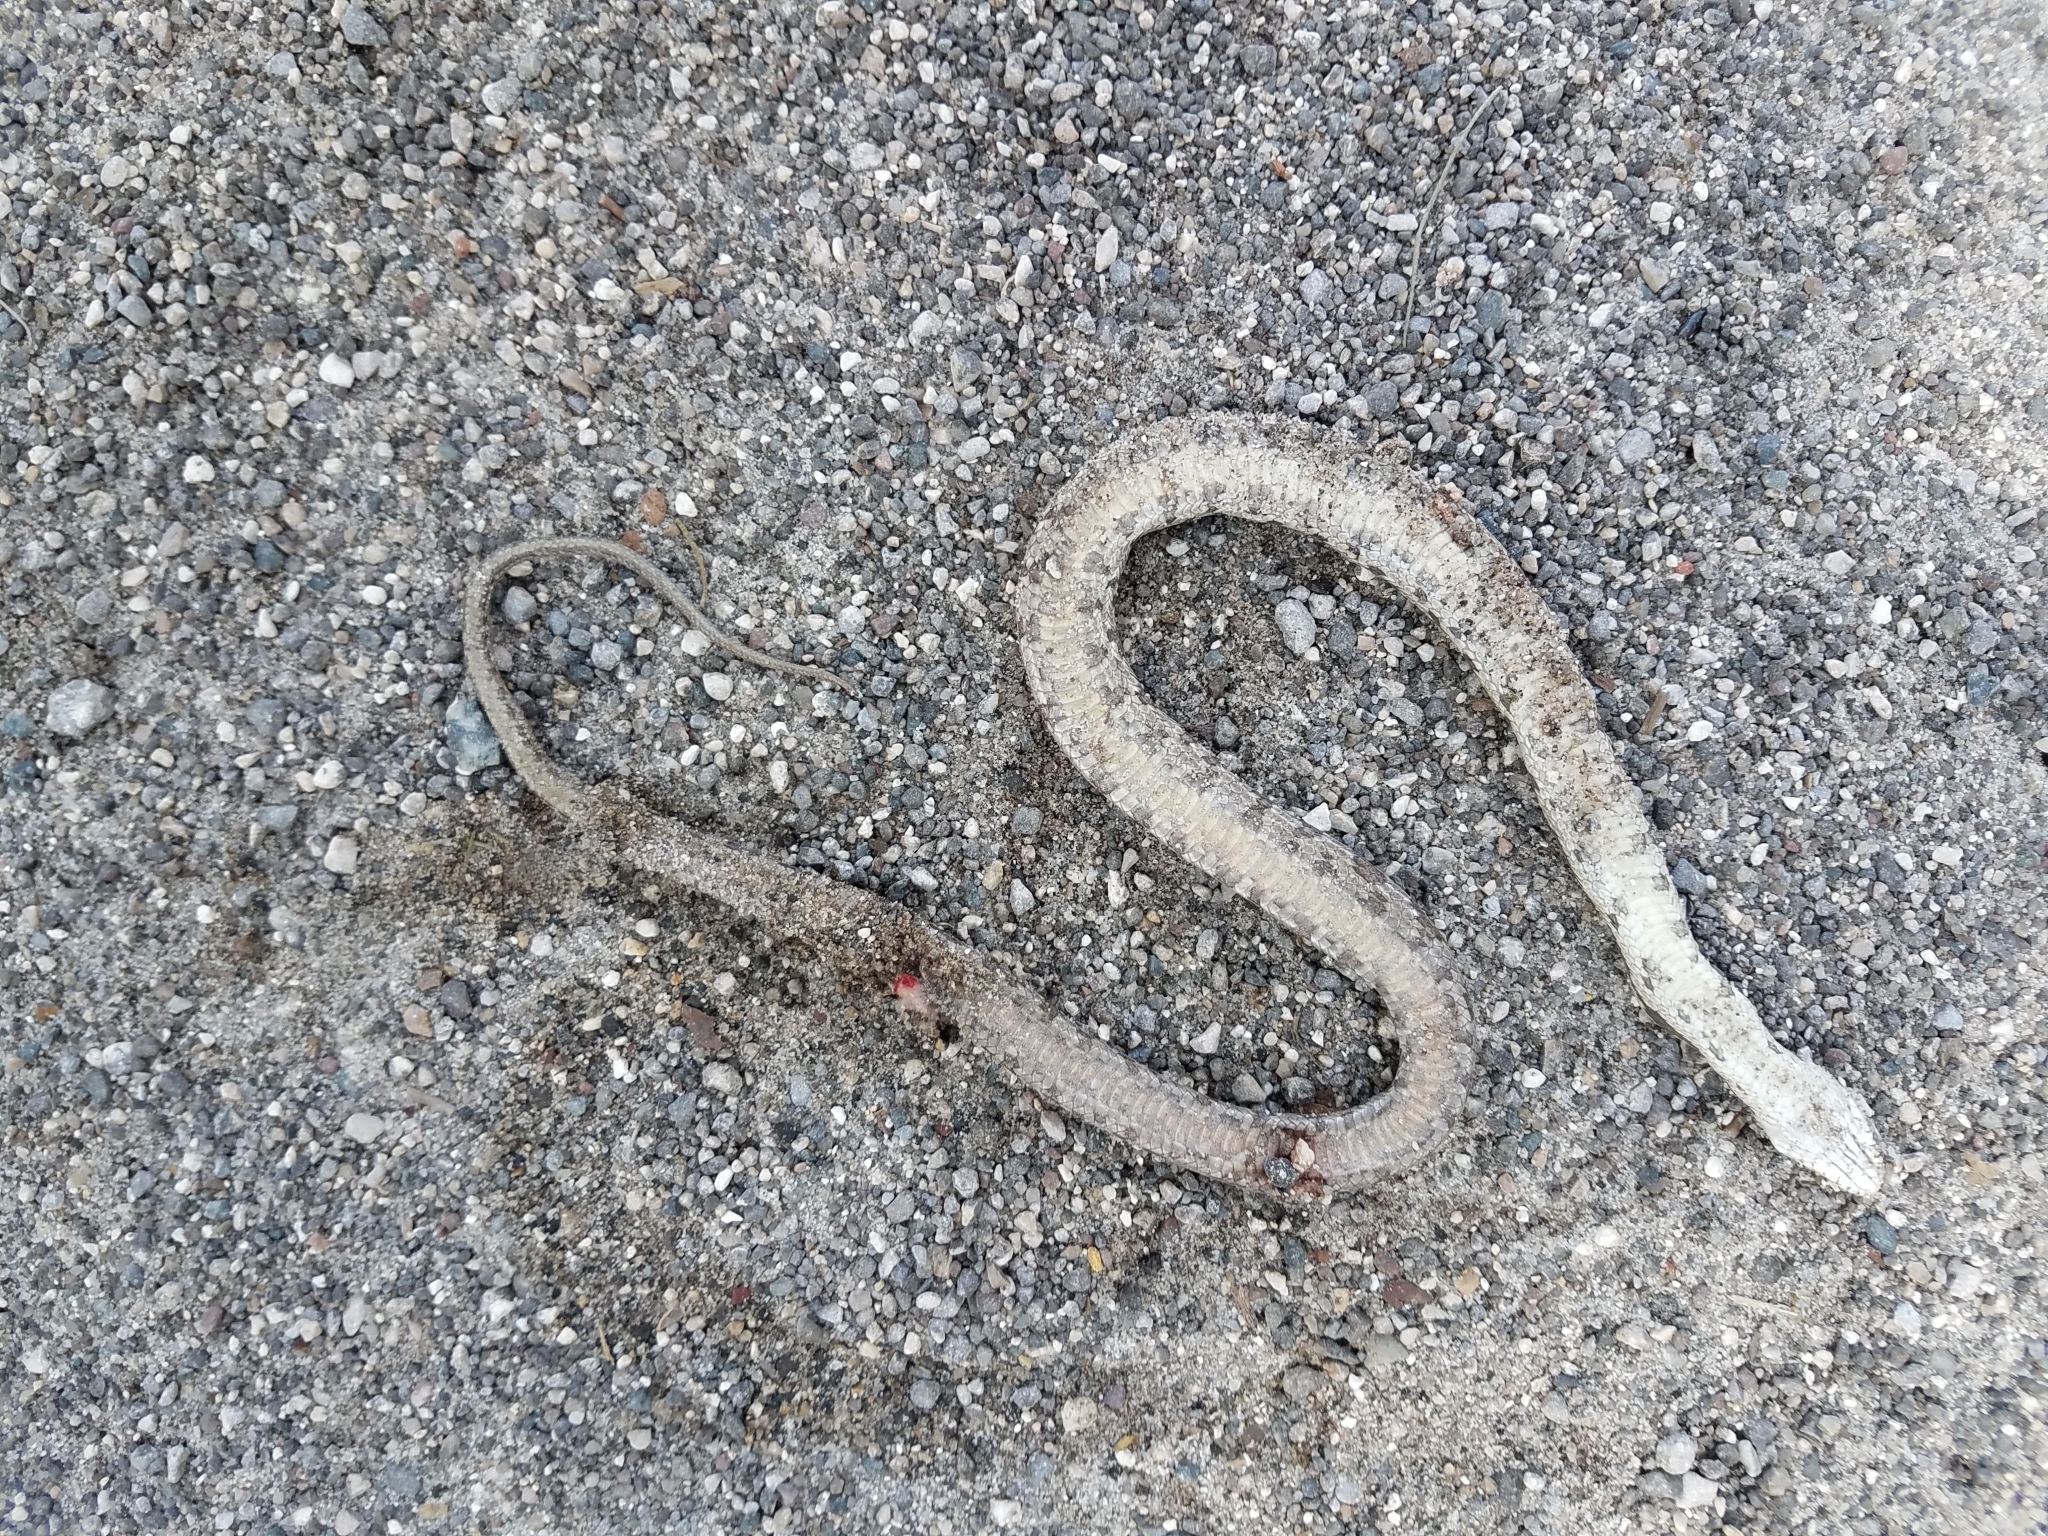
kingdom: Animalia
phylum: Chordata
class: Squamata
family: Colubridae
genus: Pantherophis
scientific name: Pantherophis alleghaniensis
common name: Eastern rat snake
